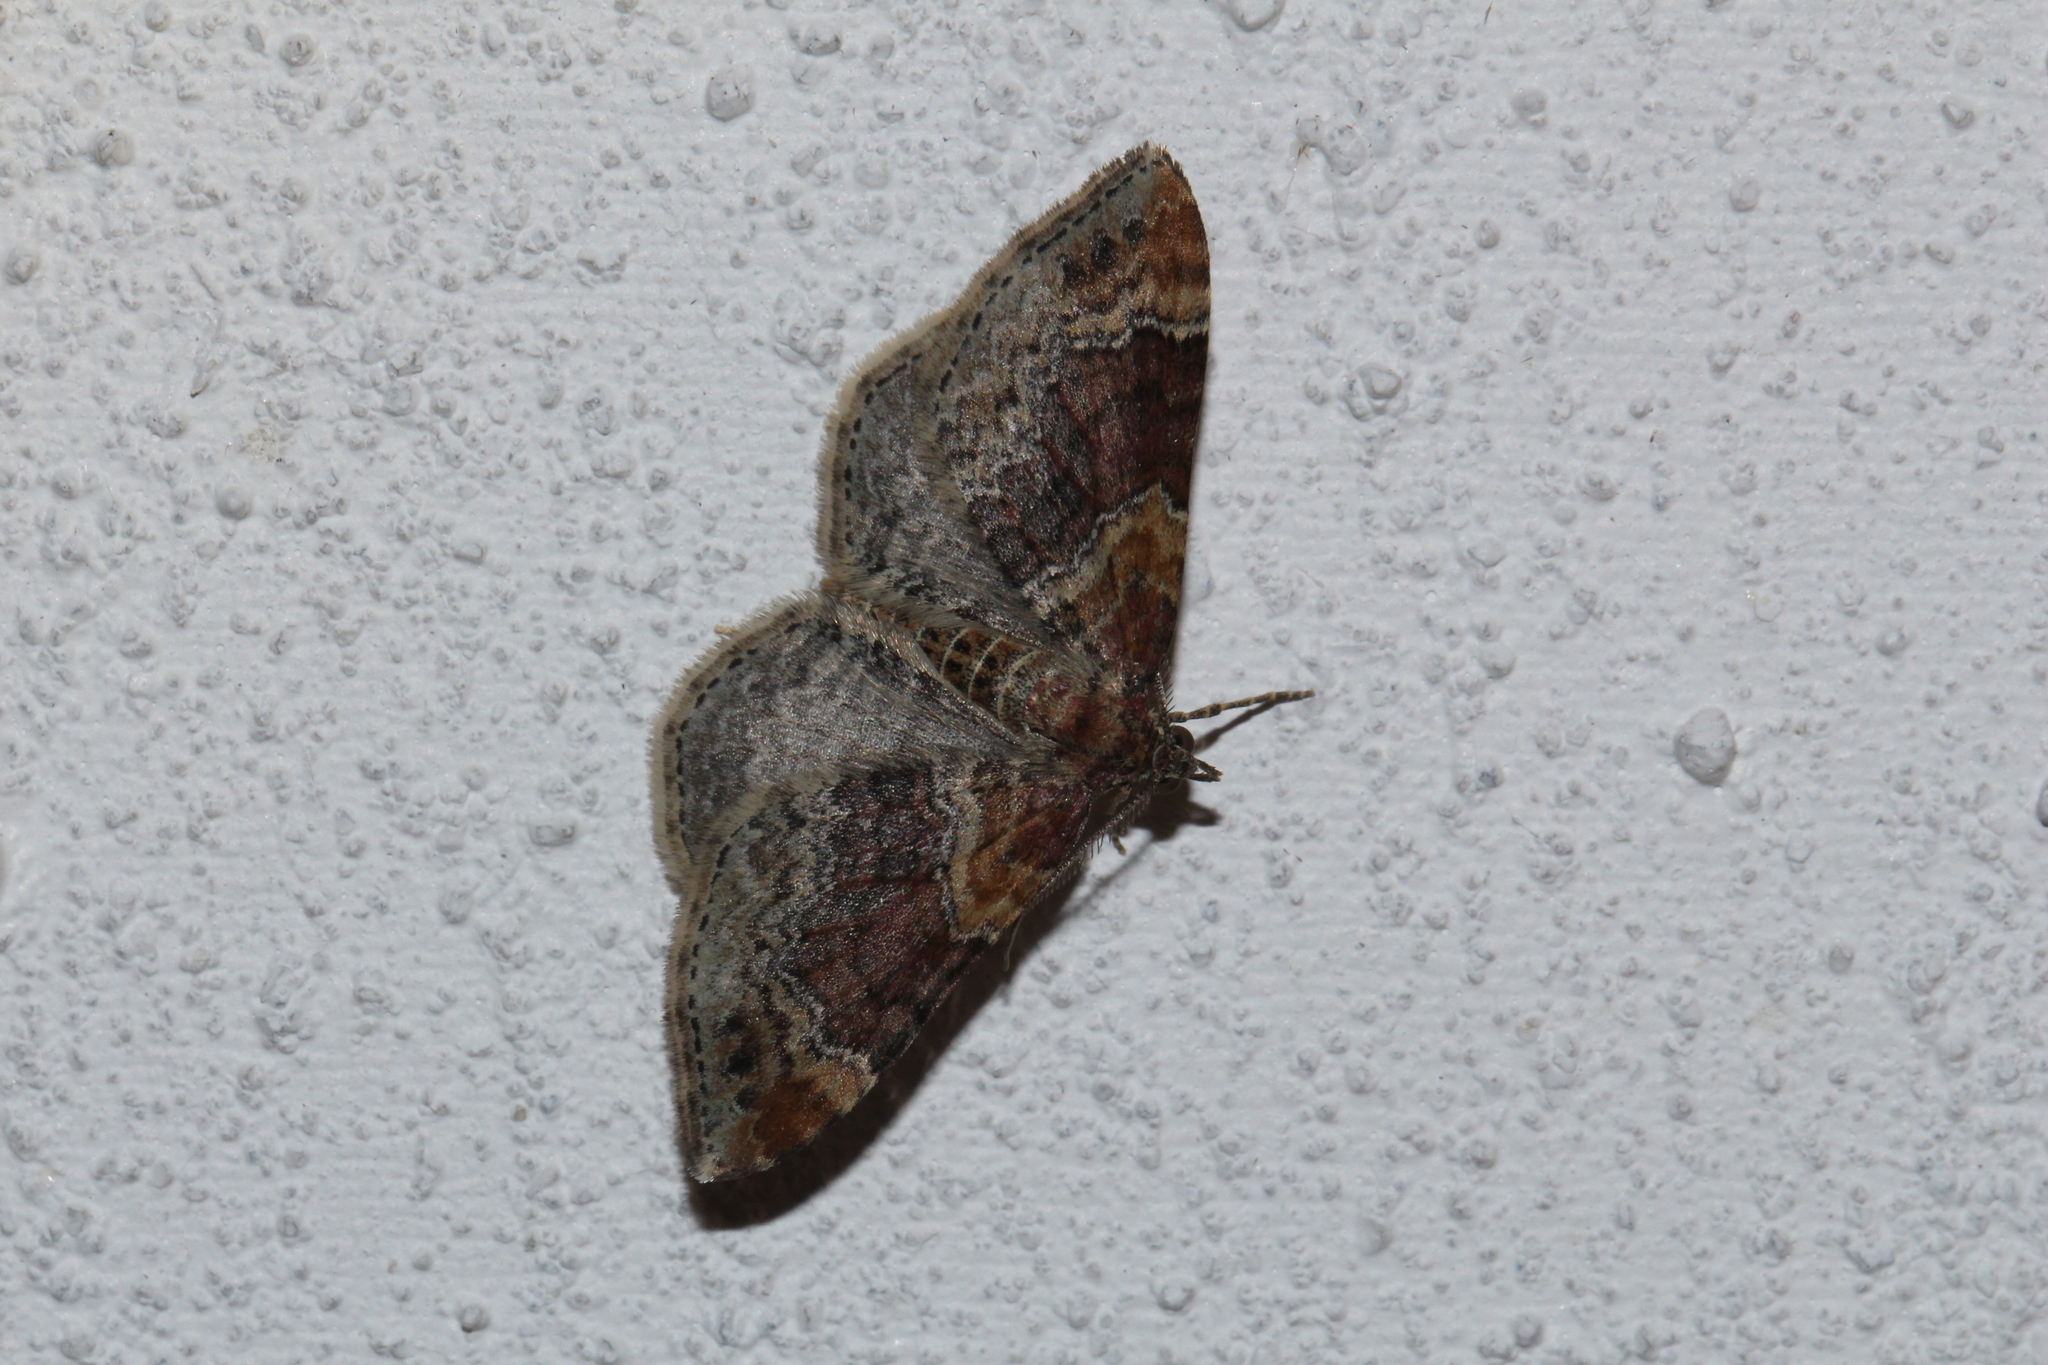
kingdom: Animalia
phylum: Arthropoda
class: Insecta
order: Lepidoptera
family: Geometridae
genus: Xanthorhoe
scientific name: Xanthorhoe spadicearia
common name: Red twin-spot carpet
